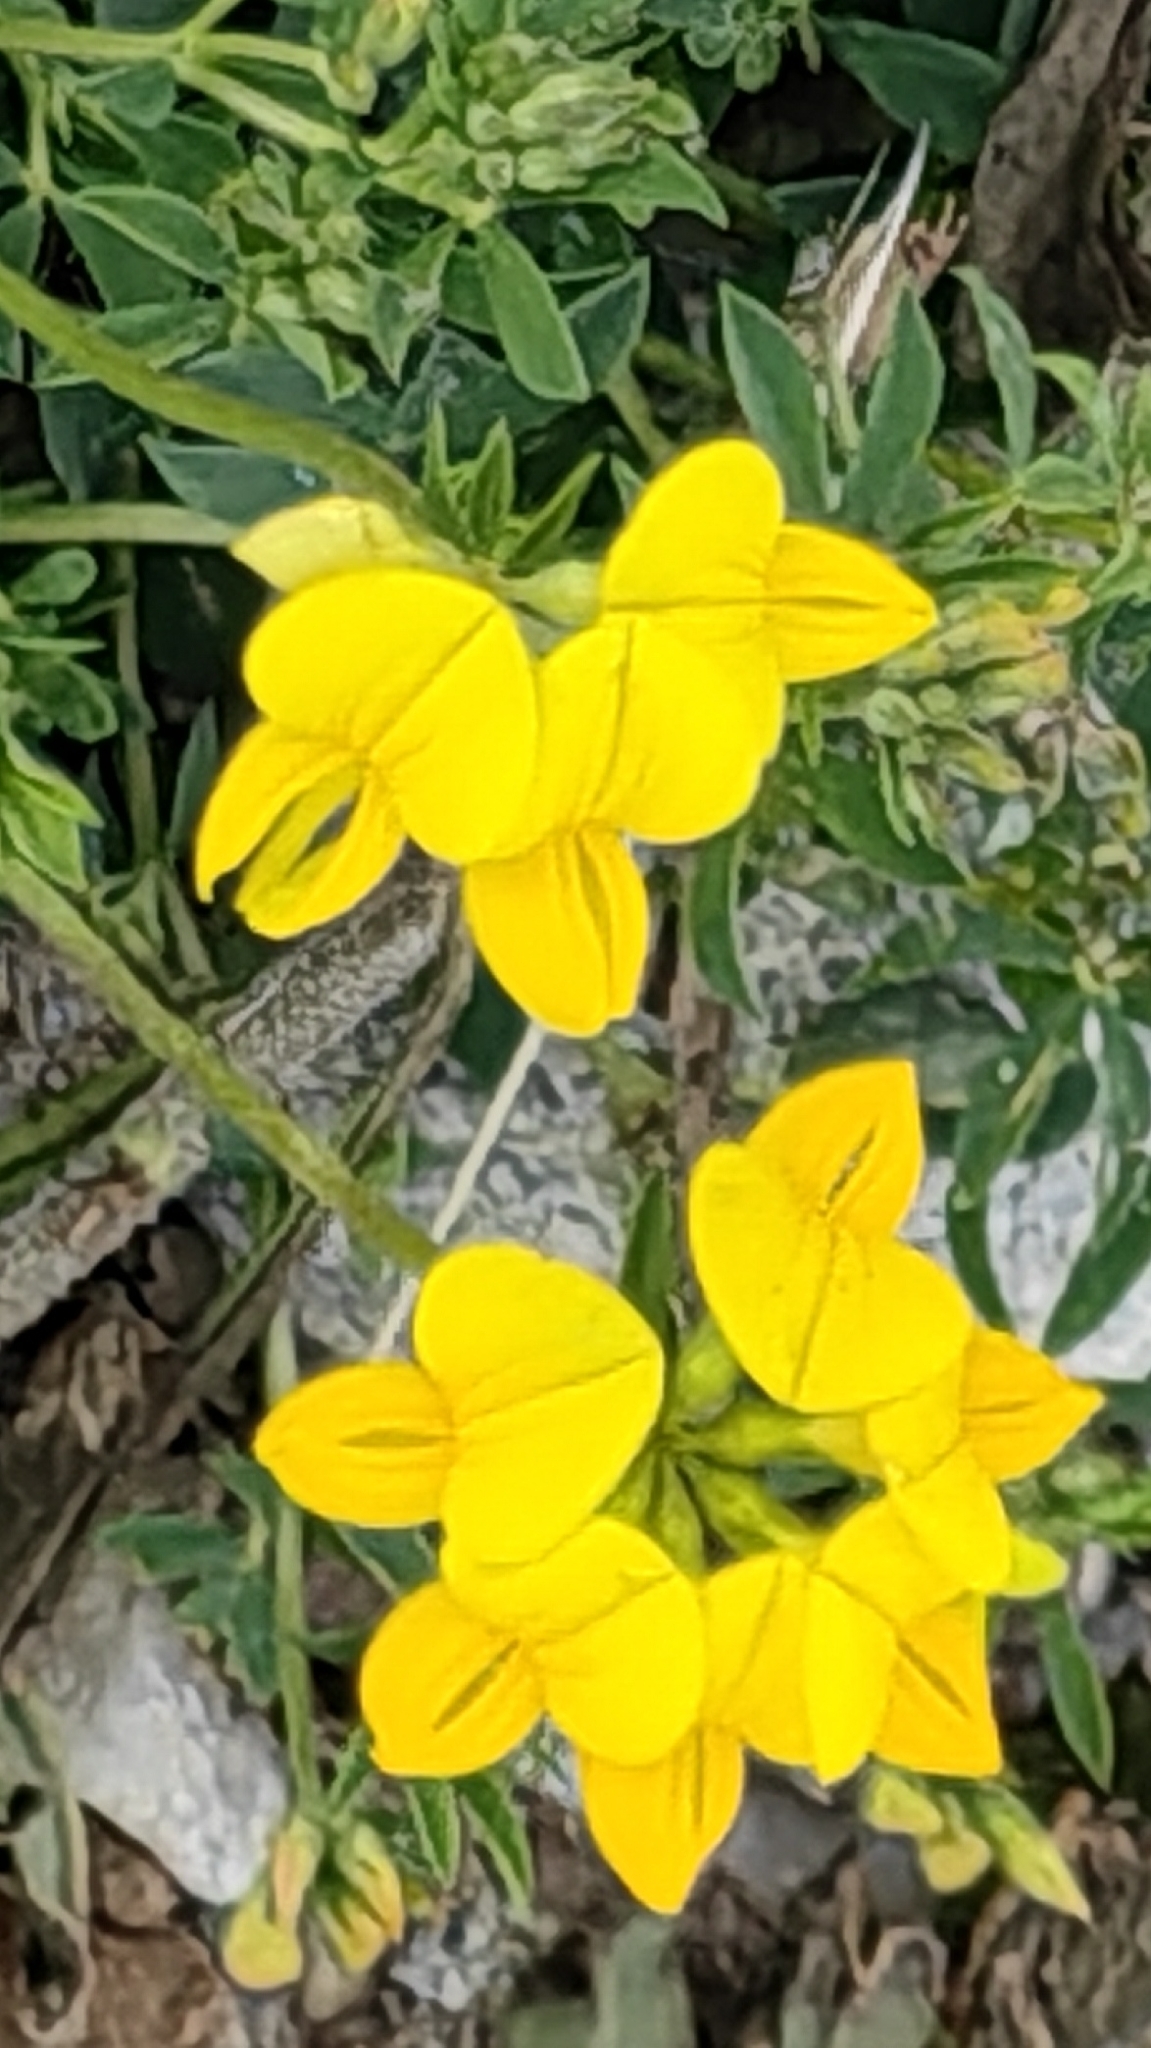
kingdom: Plantae
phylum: Tracheophyta
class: Magnoliopsida
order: Fabales
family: Fabaceae
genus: Lotus
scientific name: Lotus corniculatus
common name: Common bird's-foot-trefoil
